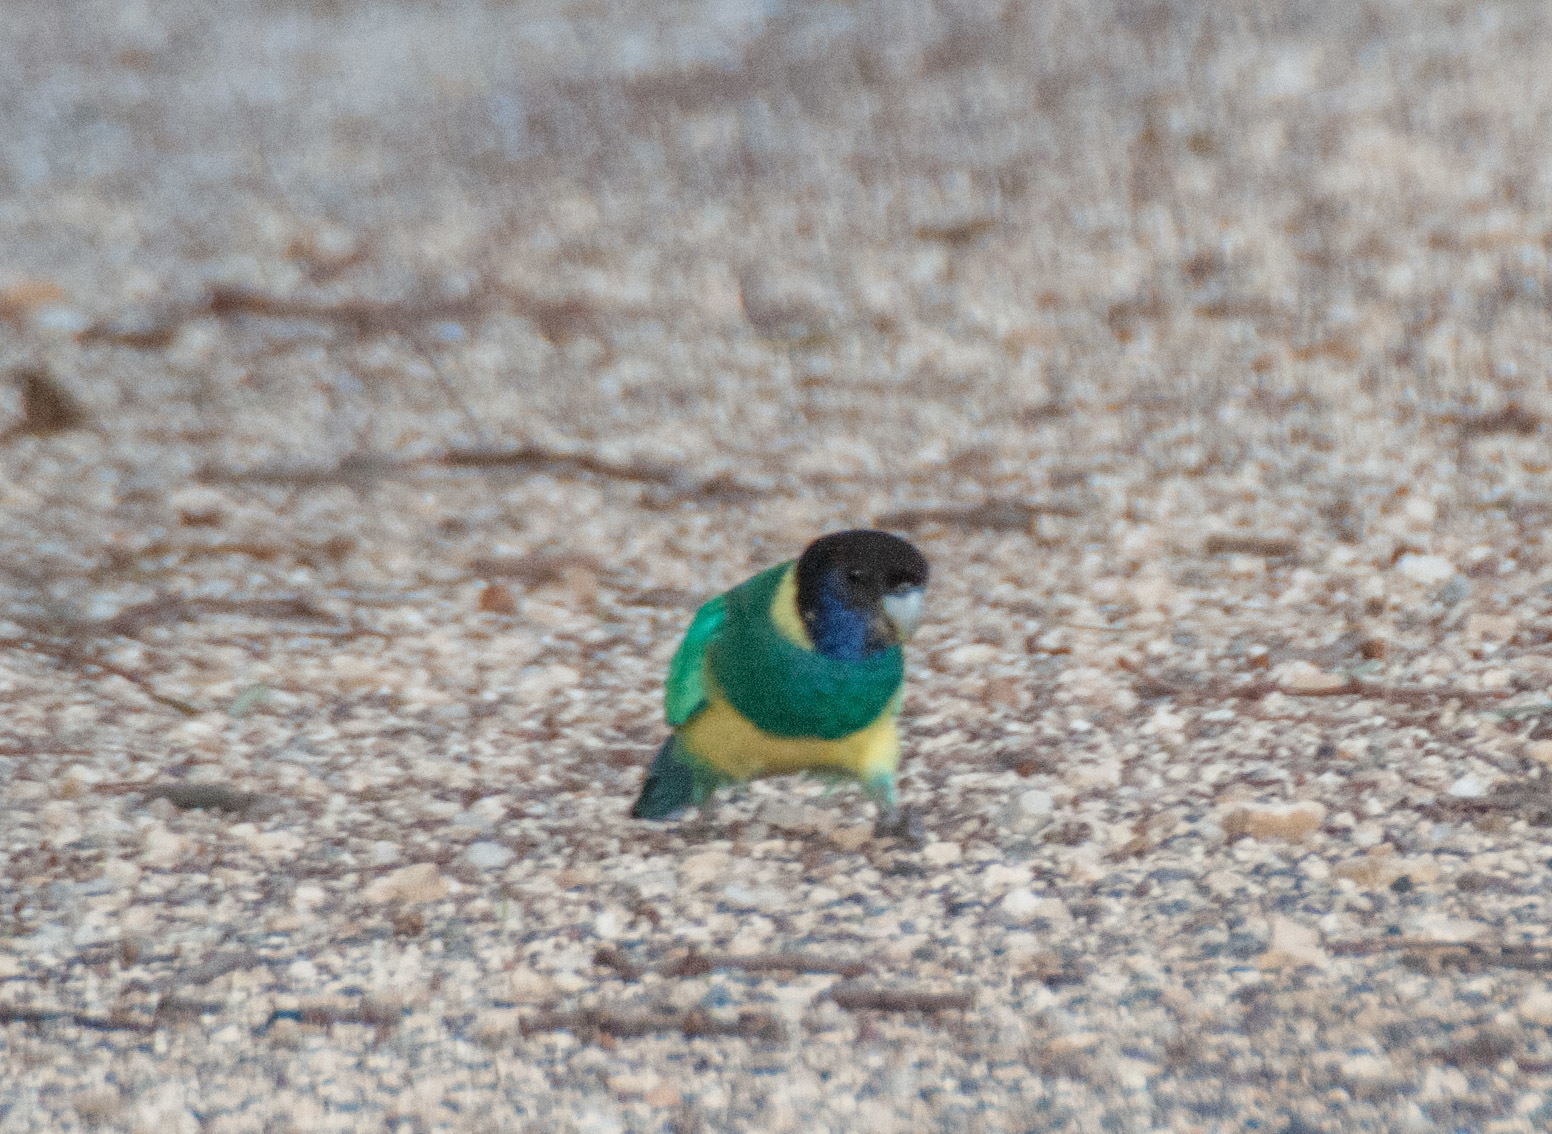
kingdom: Animalia
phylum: Chordata
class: Aves
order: Psittaciformes
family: Psittacidae
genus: Barnardius
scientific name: Barnardius zonarius
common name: Australian ringneck
